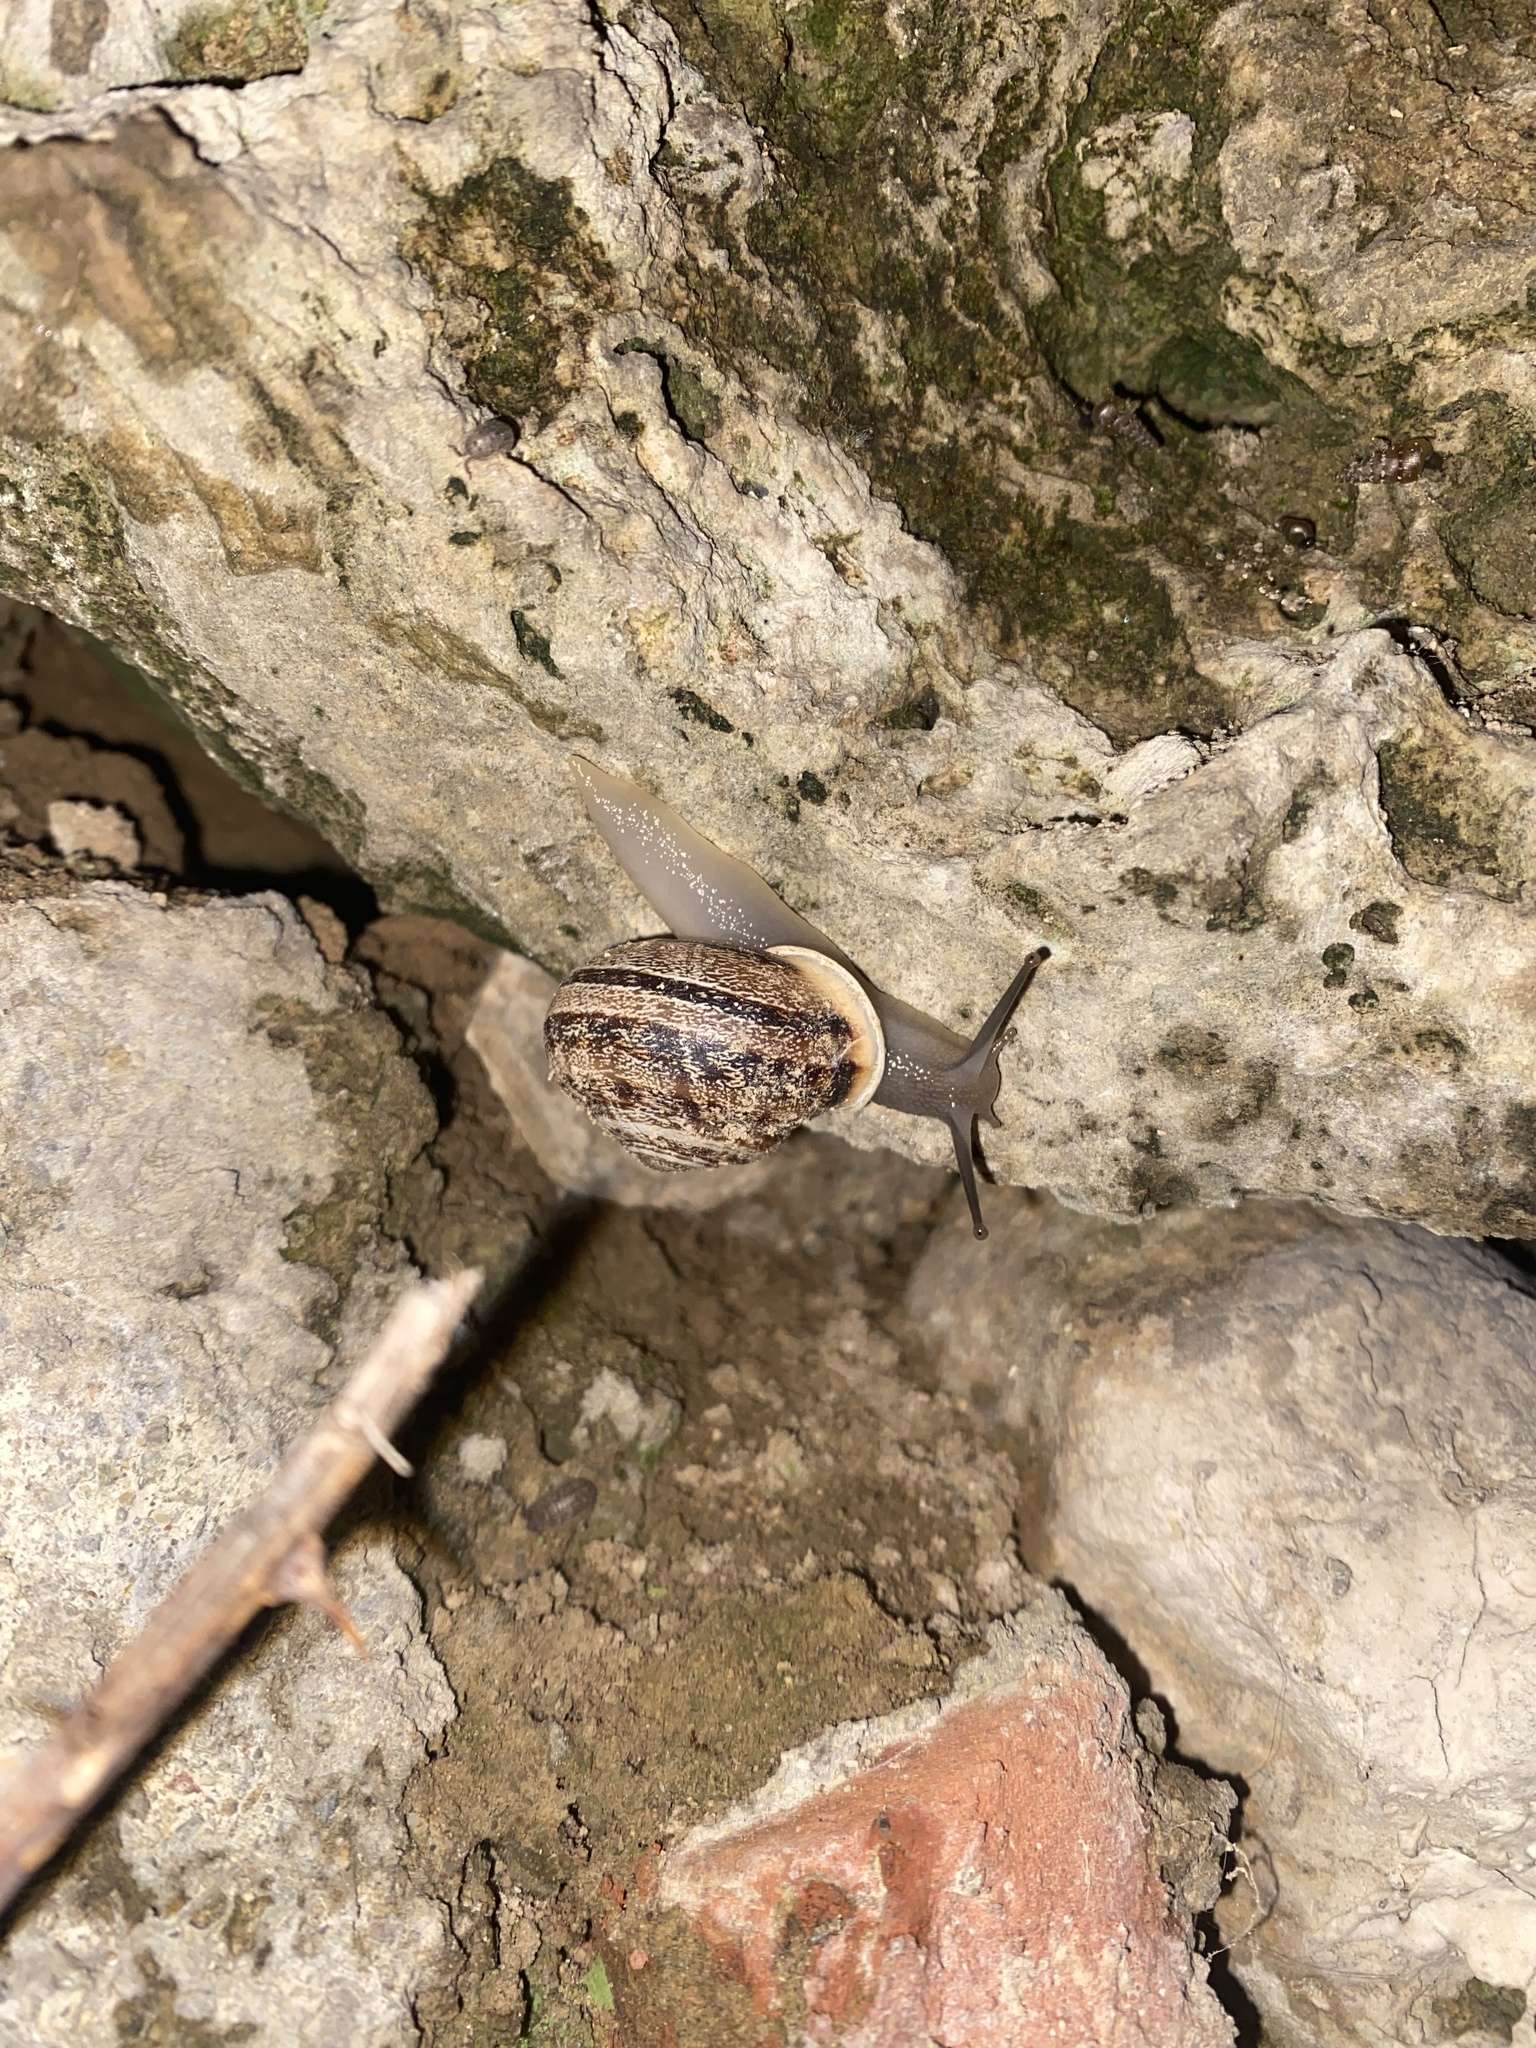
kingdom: Animalia
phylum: Mollusca
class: Gastropoda
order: Stylommatophora
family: Helicidae
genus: Eobania
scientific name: Eobania vermiculata
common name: Chocolateband snail
